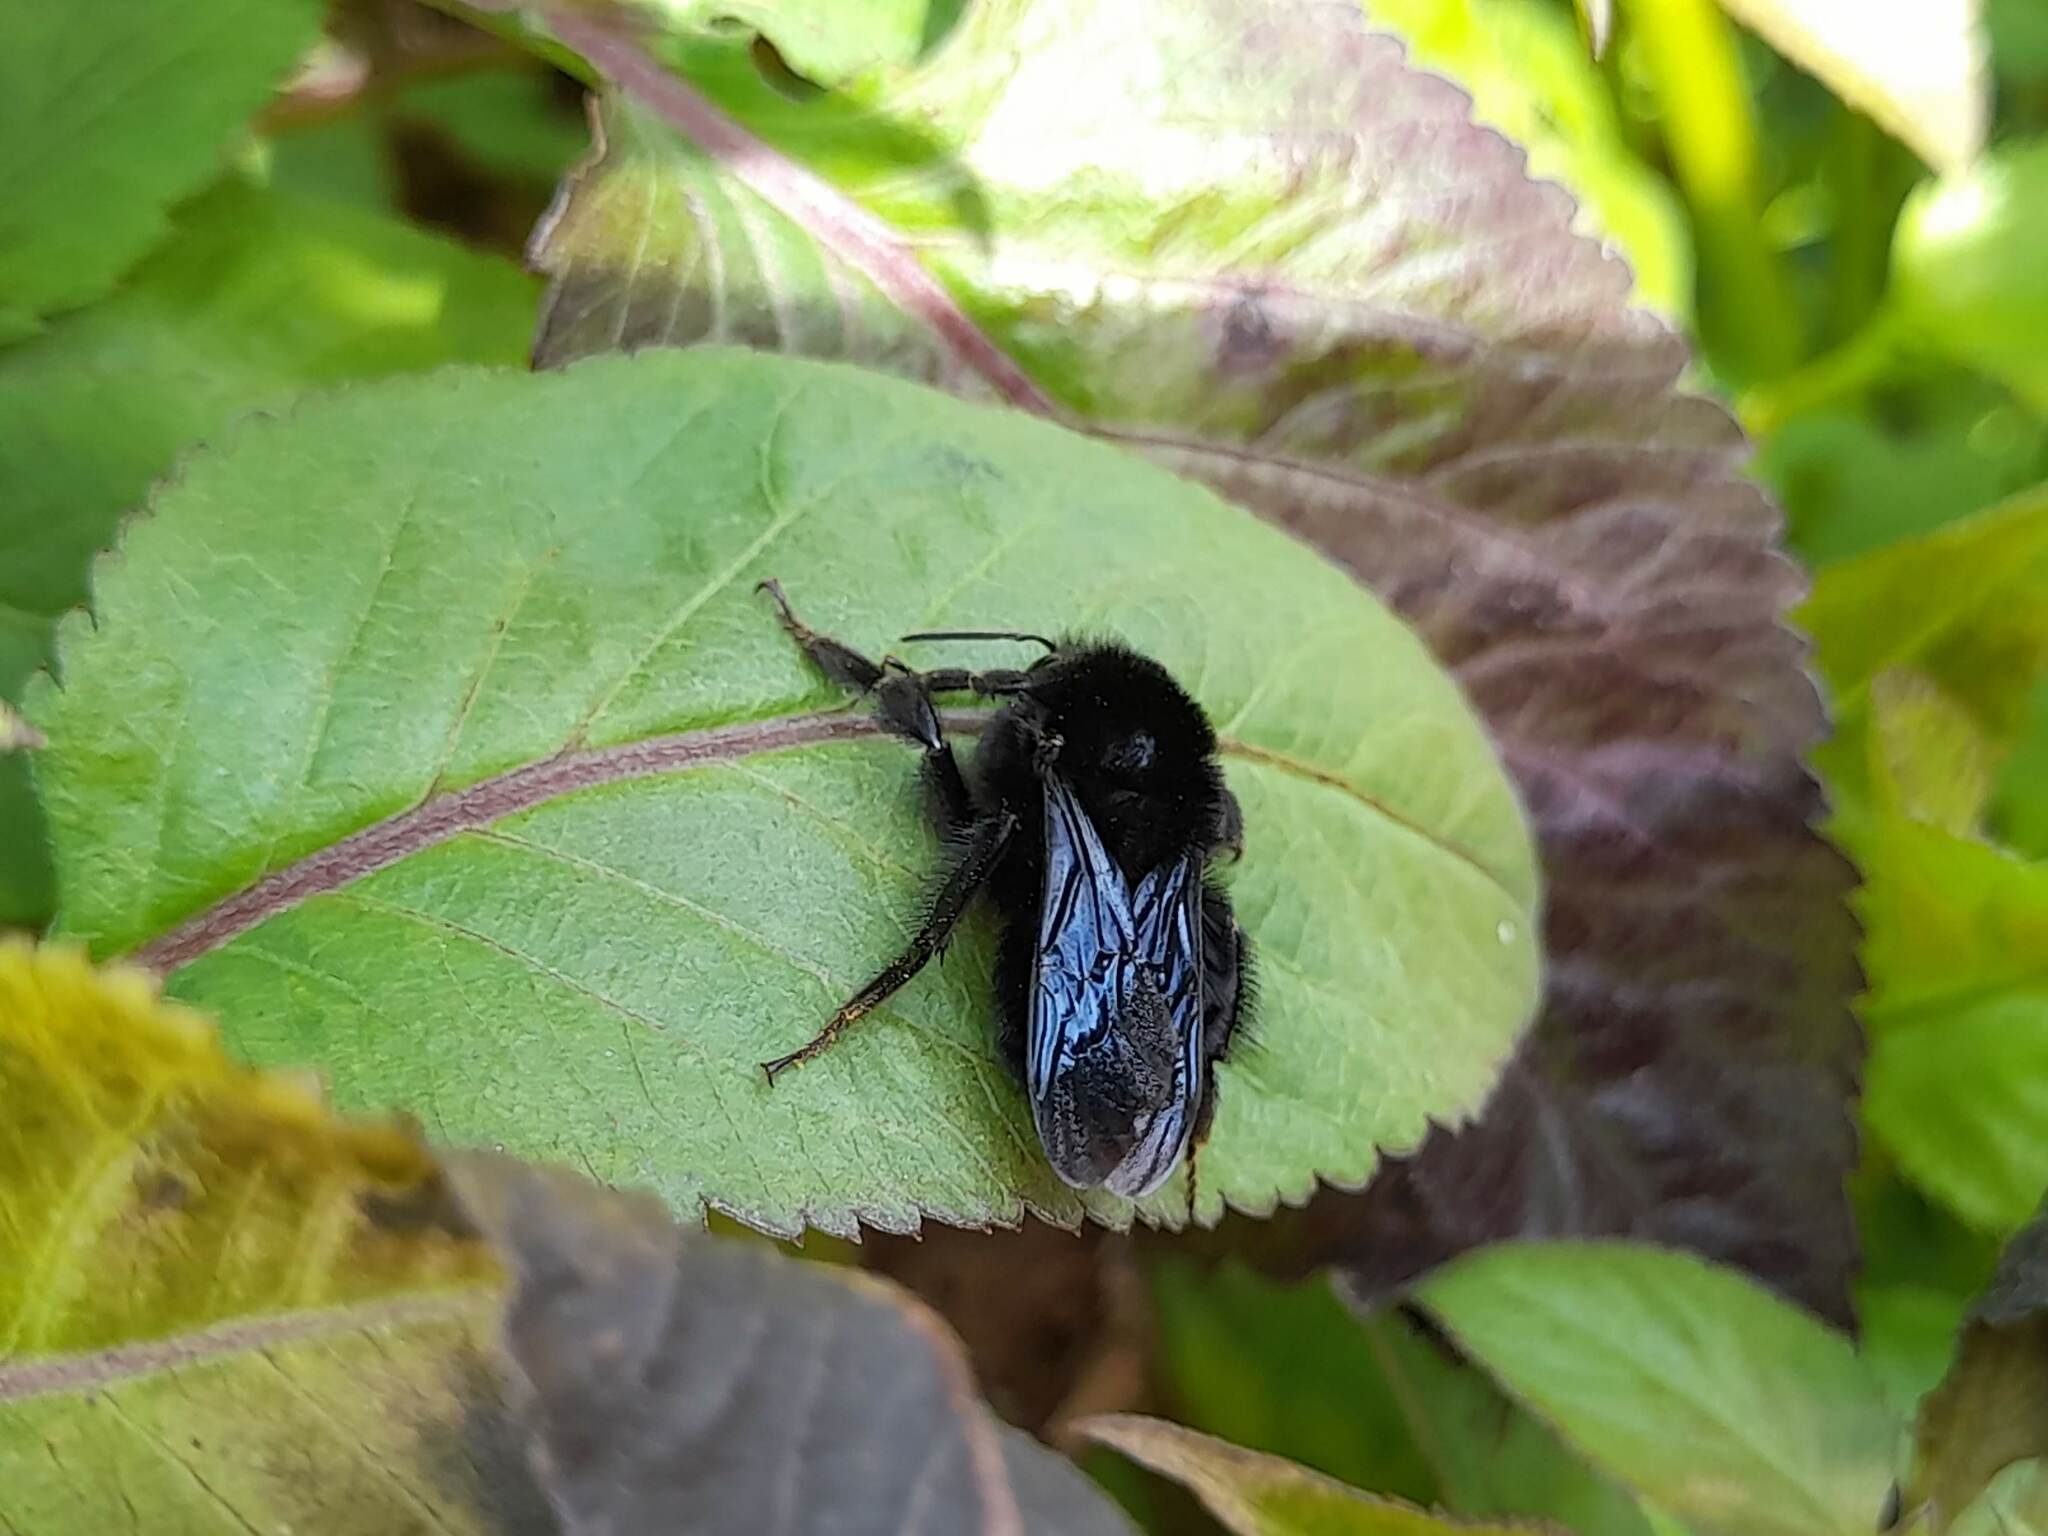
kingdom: Animalia
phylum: Arthropoda
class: Insecta
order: Hymenoptera
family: Apidae
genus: Bombus
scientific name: Bombus pauloensis
